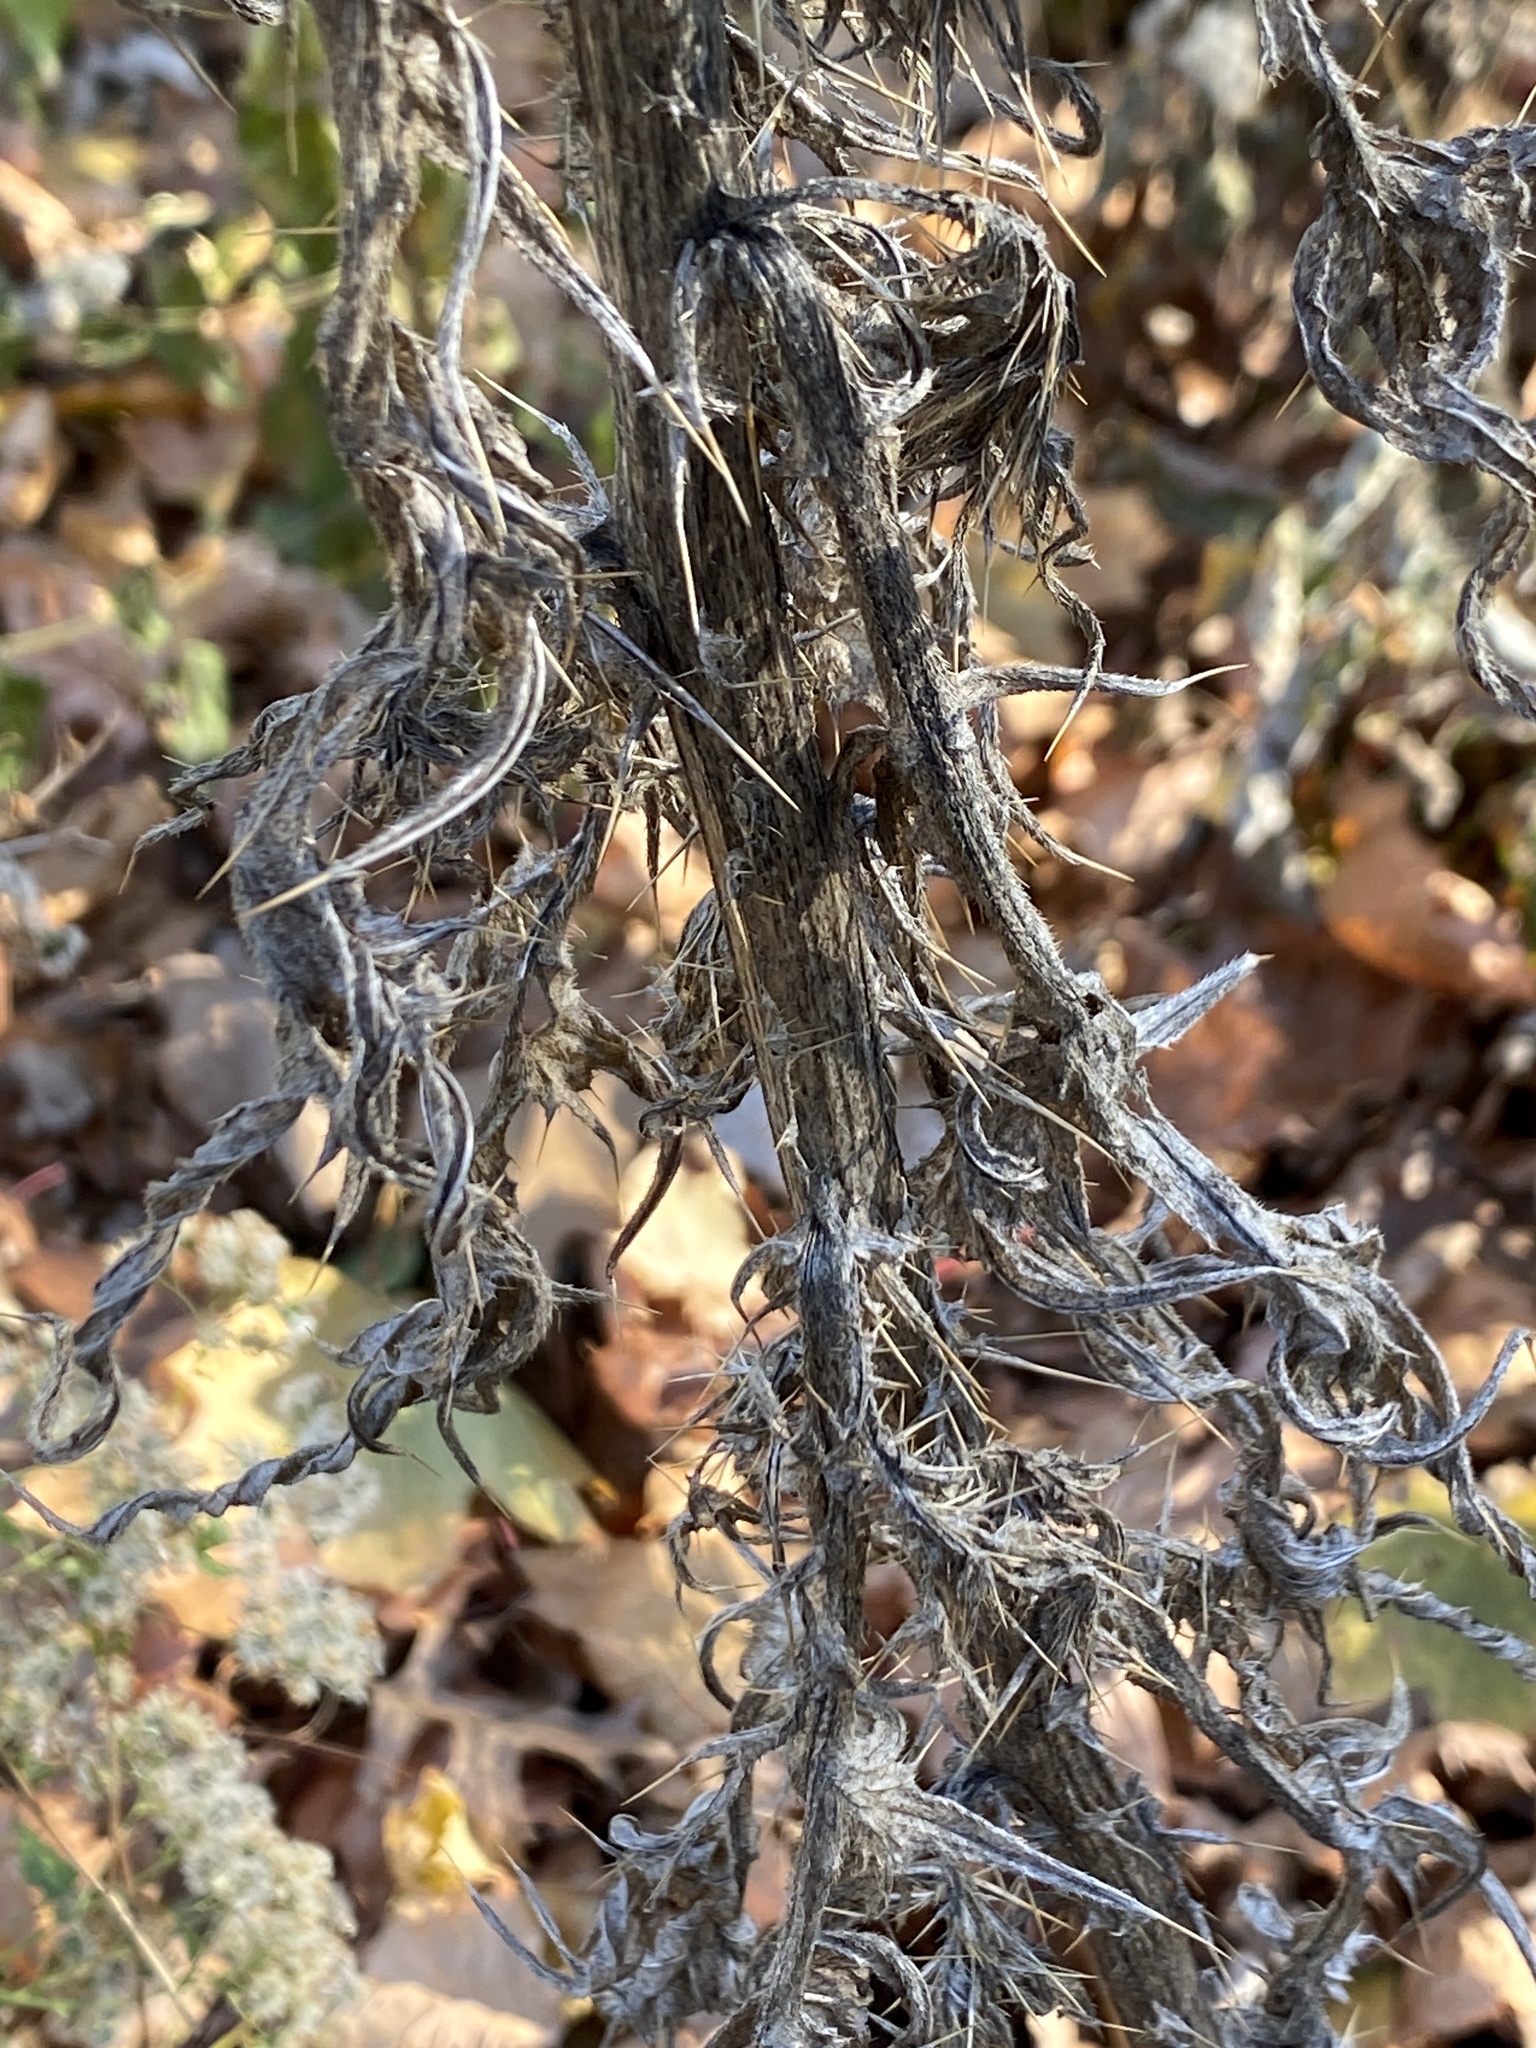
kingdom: Plantae
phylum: Tracheophyta
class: Magnoliopsida
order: Asterales
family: Asteraceae
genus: Cirsium
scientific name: Cirsium vulgare
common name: Bull thistle
